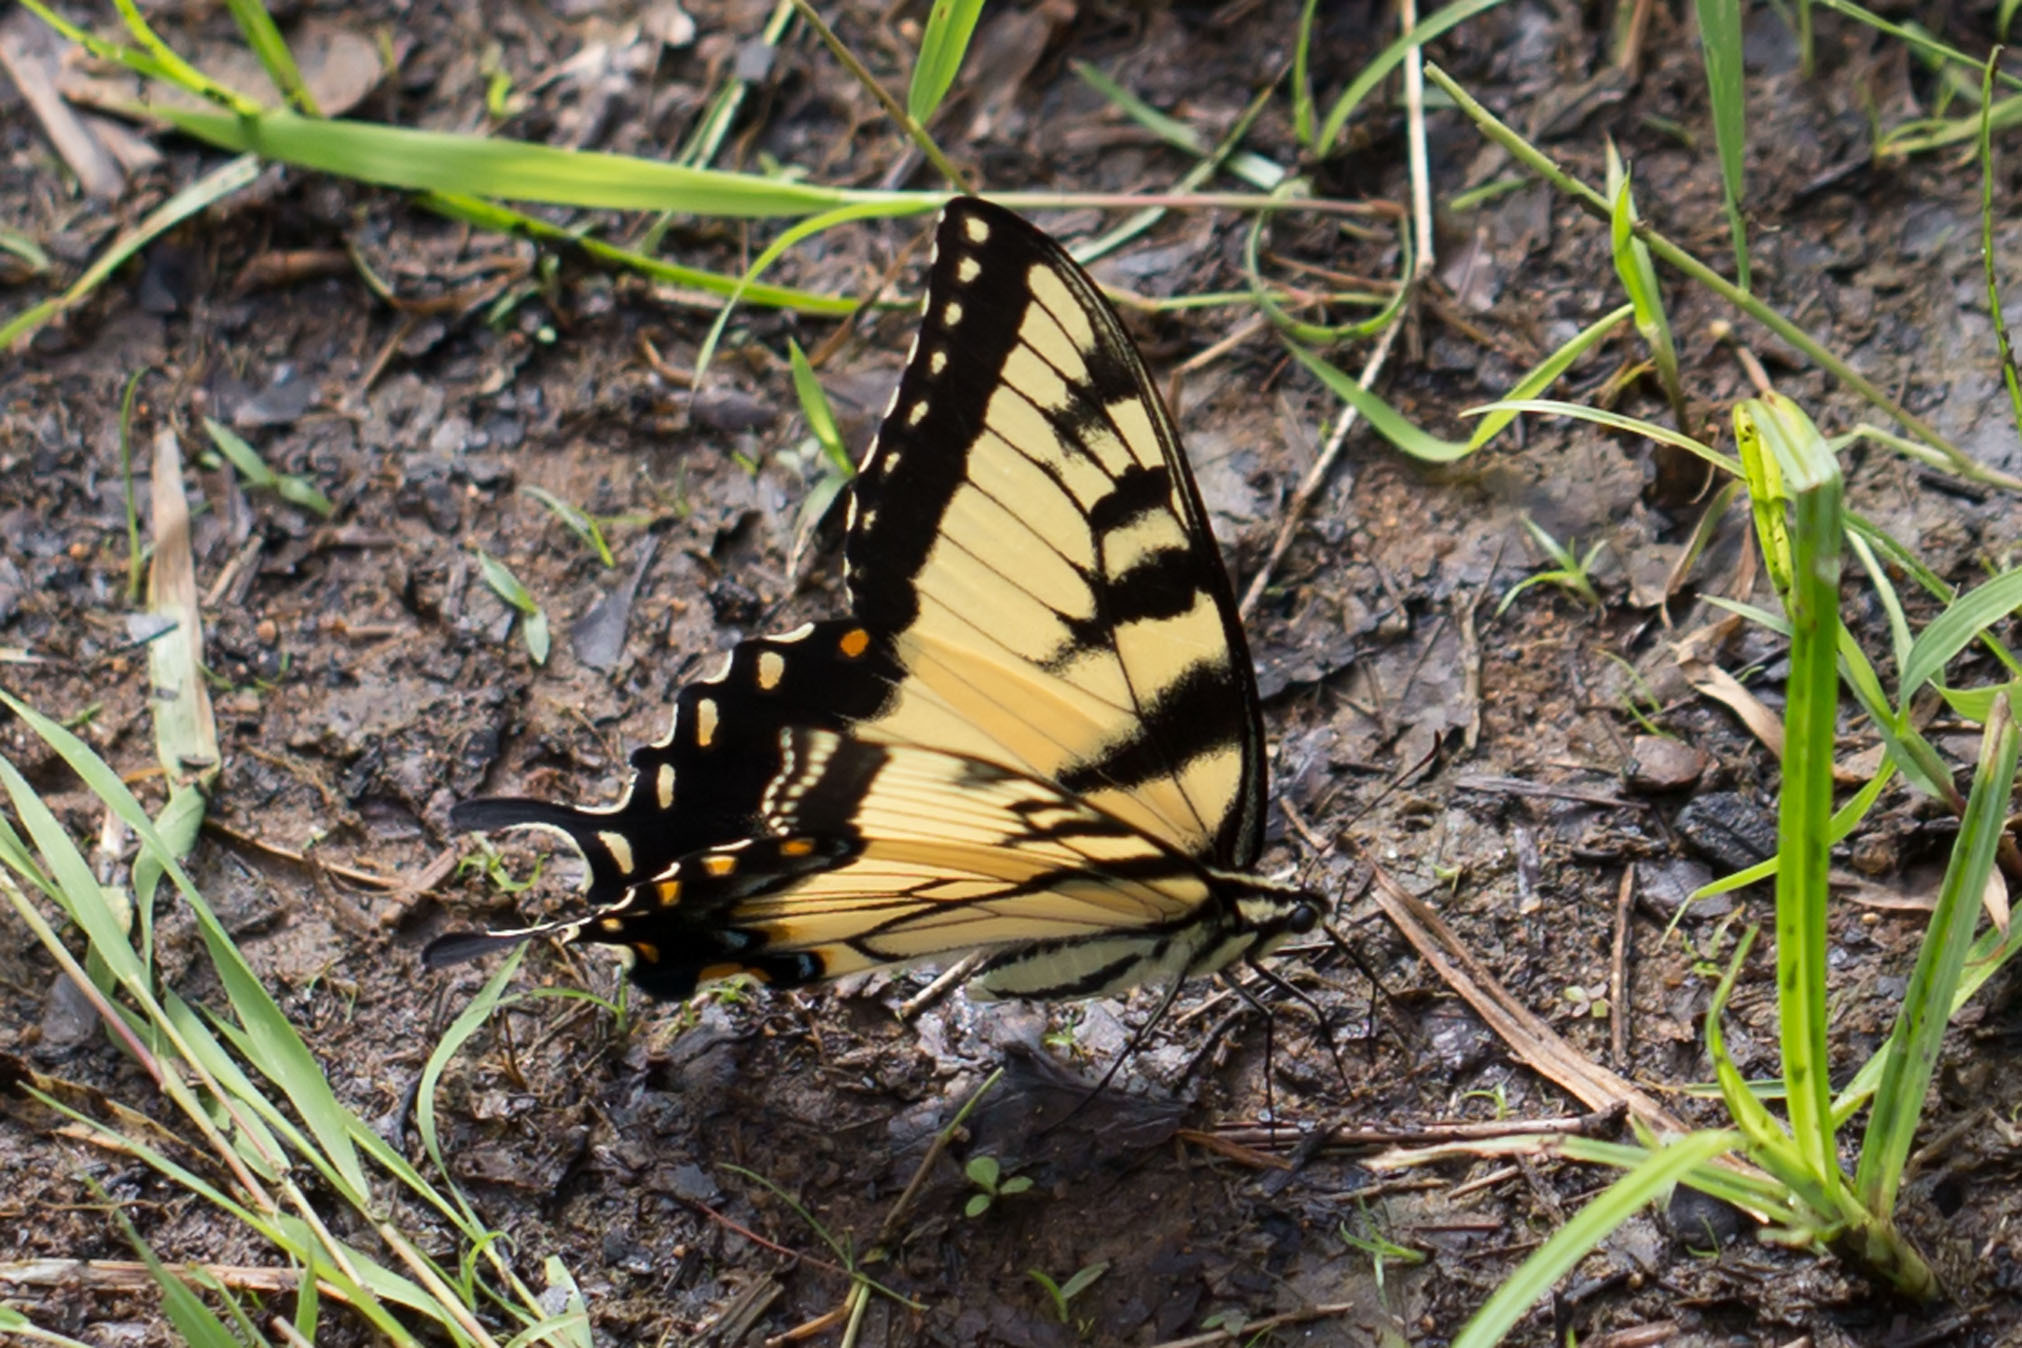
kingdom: Animalia
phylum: Arthropoda
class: Insecta
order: Lepidoptera
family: Papilionidae
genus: Papilio
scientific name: Papilio glaucus
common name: Tiger swallowtail
